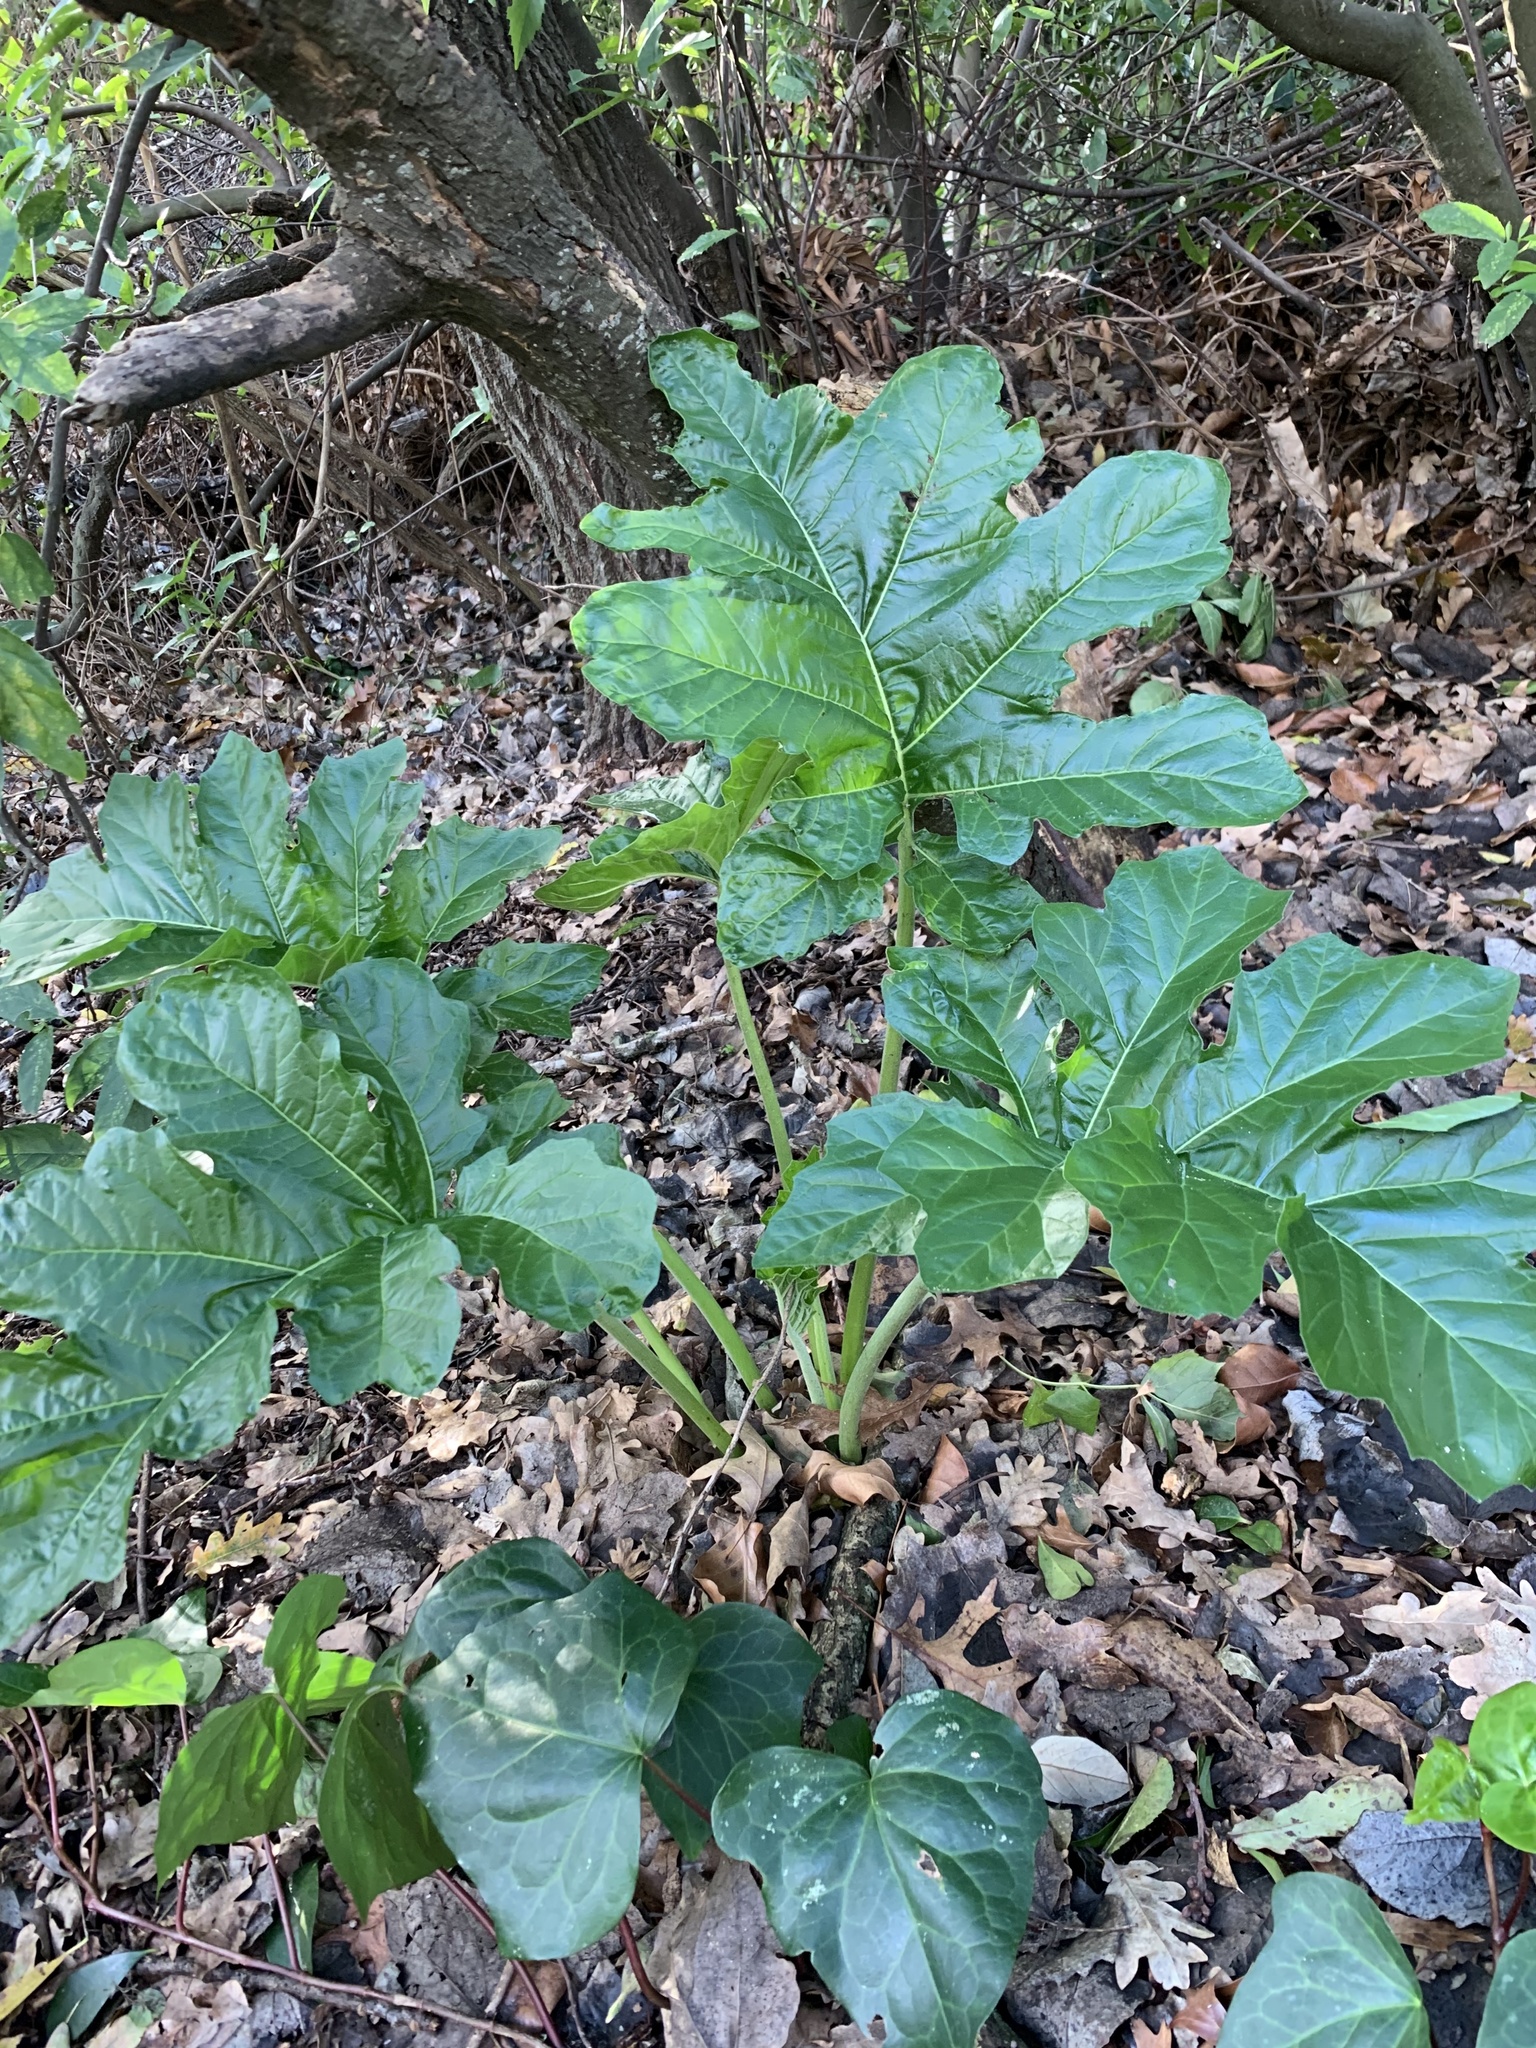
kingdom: Plantae
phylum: Tracheophyta
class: Magnoliopsida
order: Lamiales
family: Acanthaceae
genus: Acanthus
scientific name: Acanthus mollis
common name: Bear's-breech
